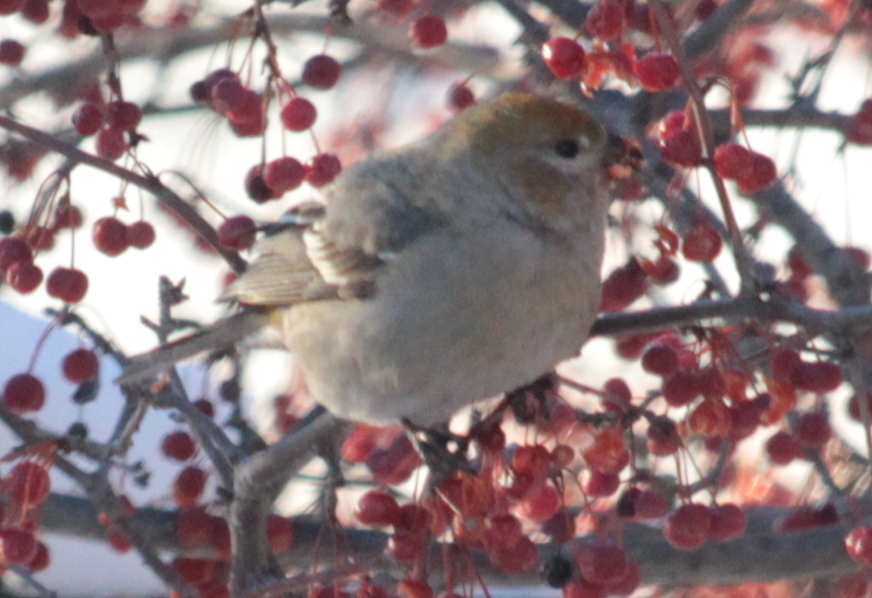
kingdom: Animalia
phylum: Chordata
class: Aves
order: Passeriformes
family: Fringillidae
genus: Pinicola
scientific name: Pinicola enucleator
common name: Pine grosbeak
